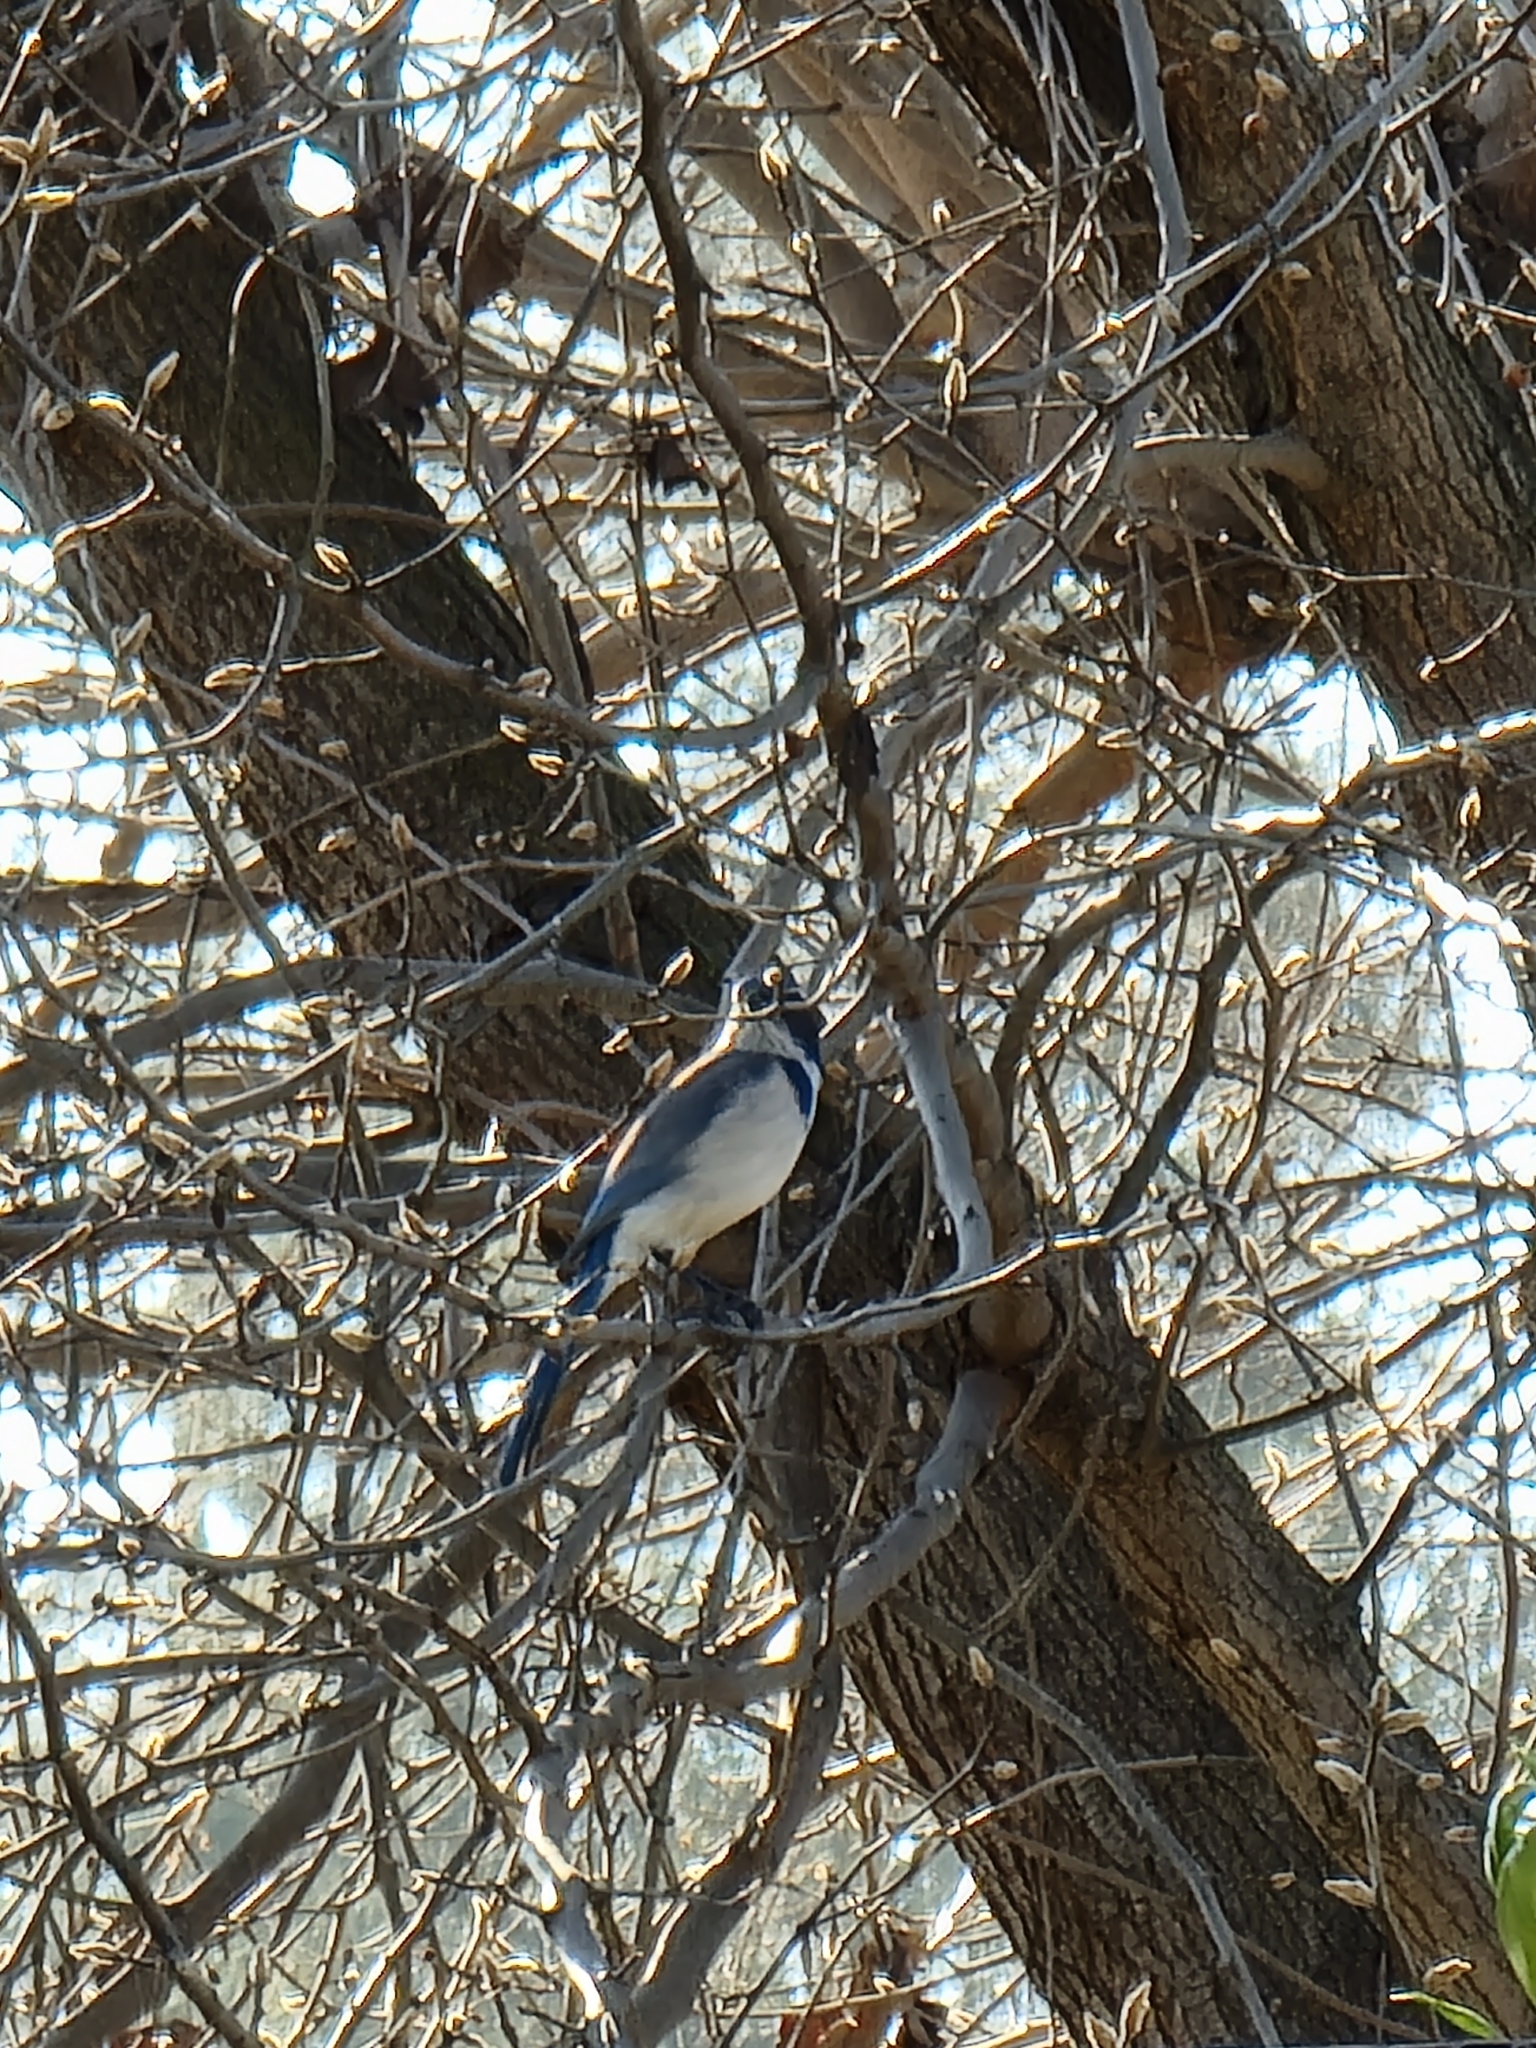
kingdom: Animalia
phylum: Chordata
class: Aves
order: Passeriformes
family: Corvidae
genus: Aphelocoma
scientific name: Aphelocoma californica
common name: California scrub-jay
